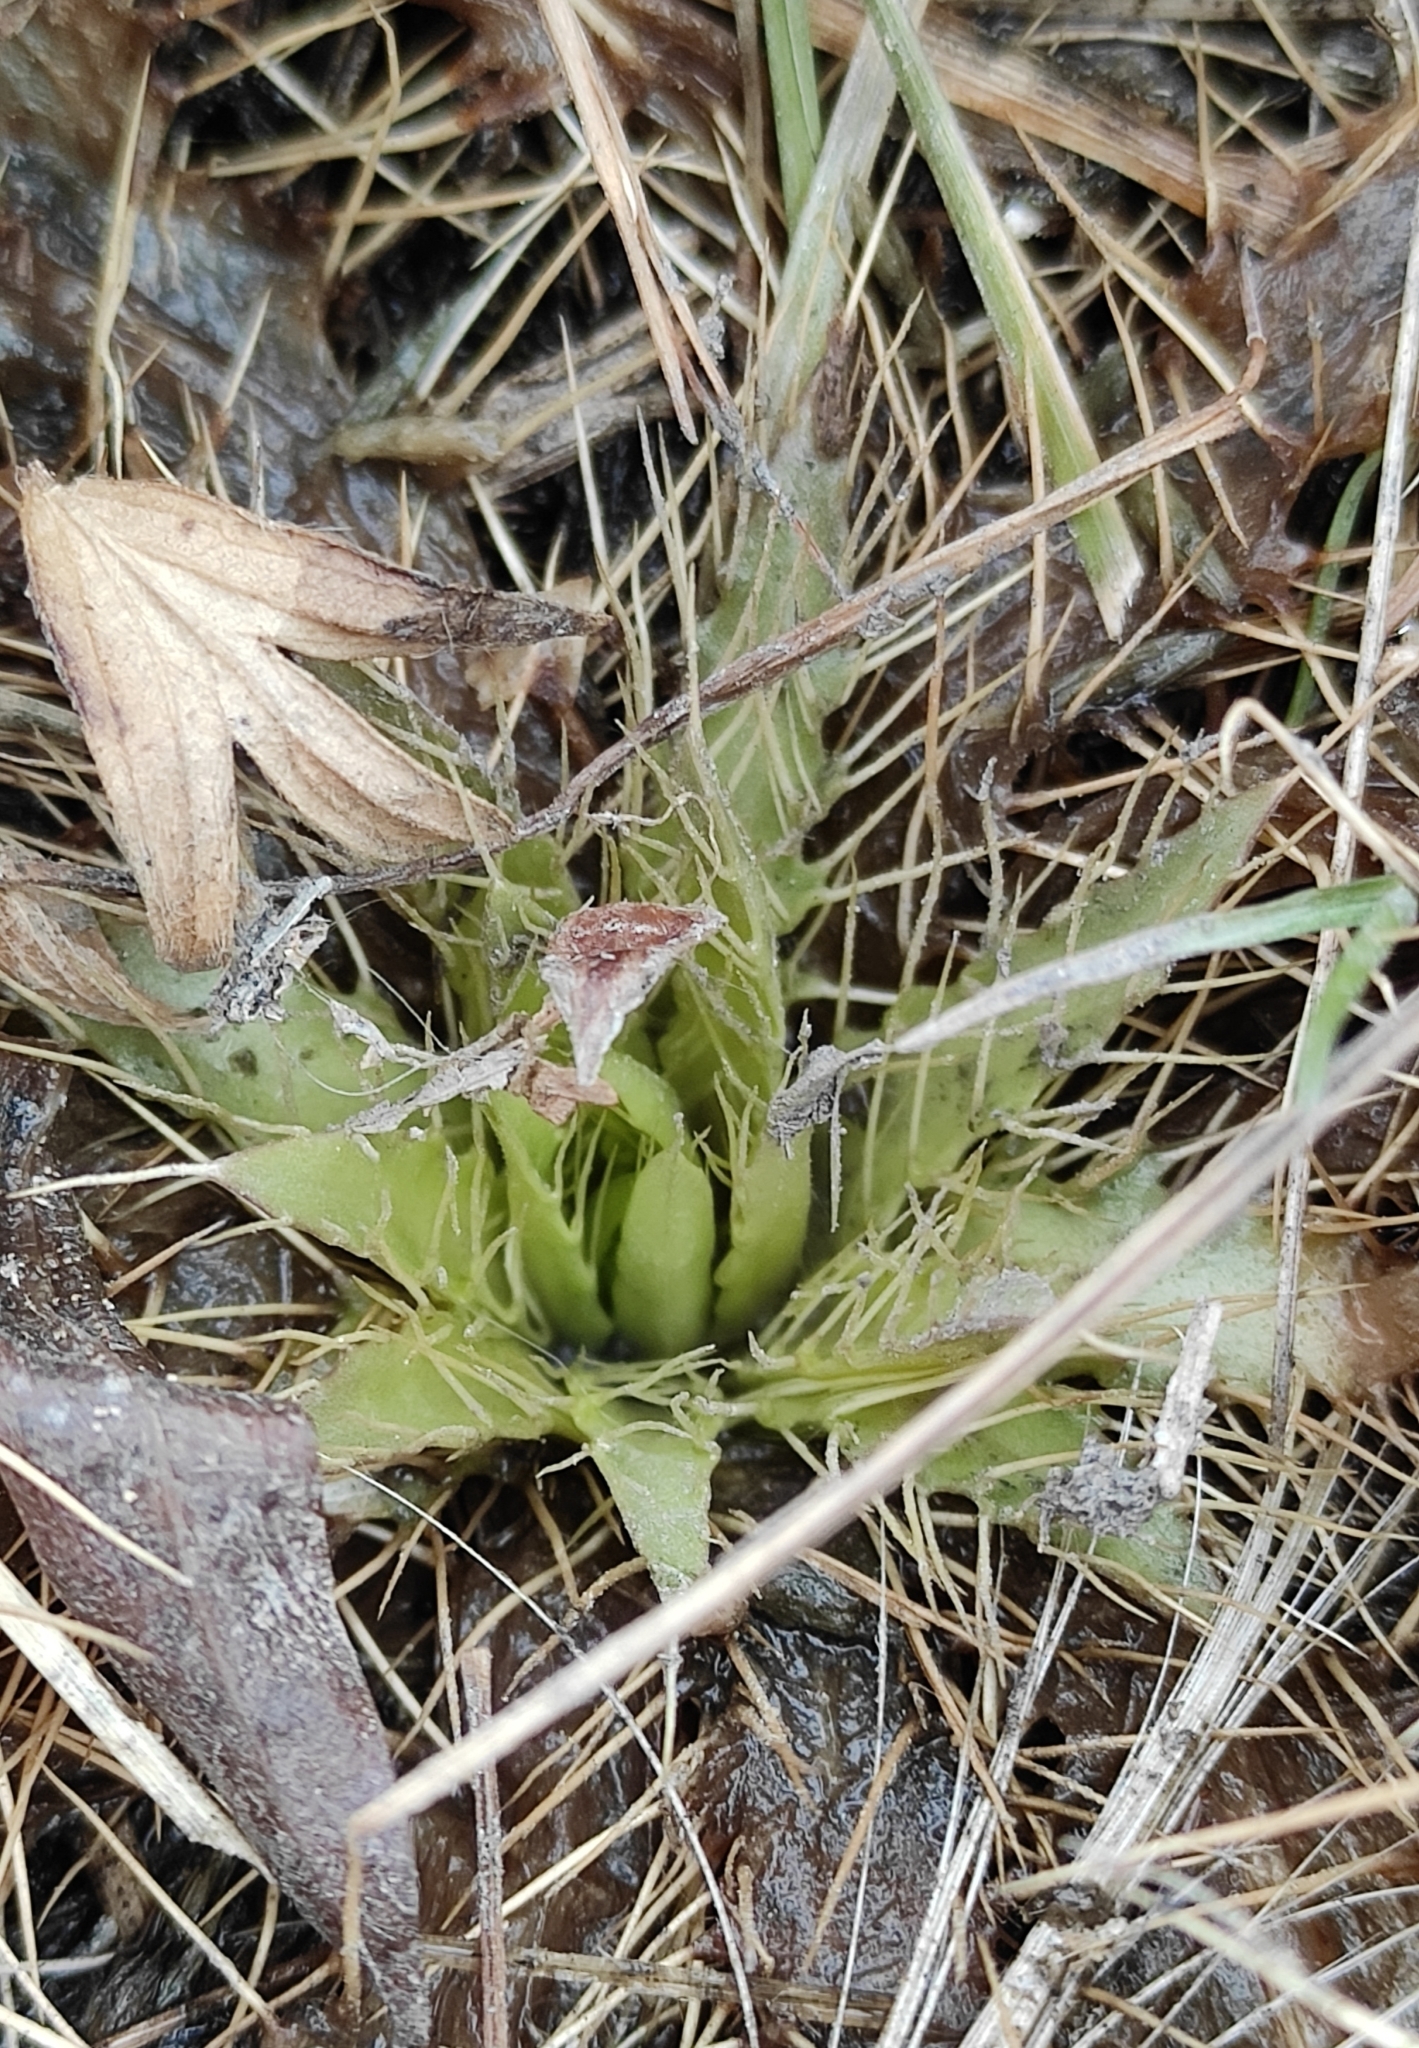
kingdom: Plantae
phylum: Tracheophyta
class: Magnoliopsida
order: Asterales
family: Asteraceae
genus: Cirsium
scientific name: Cirsium esculentum
